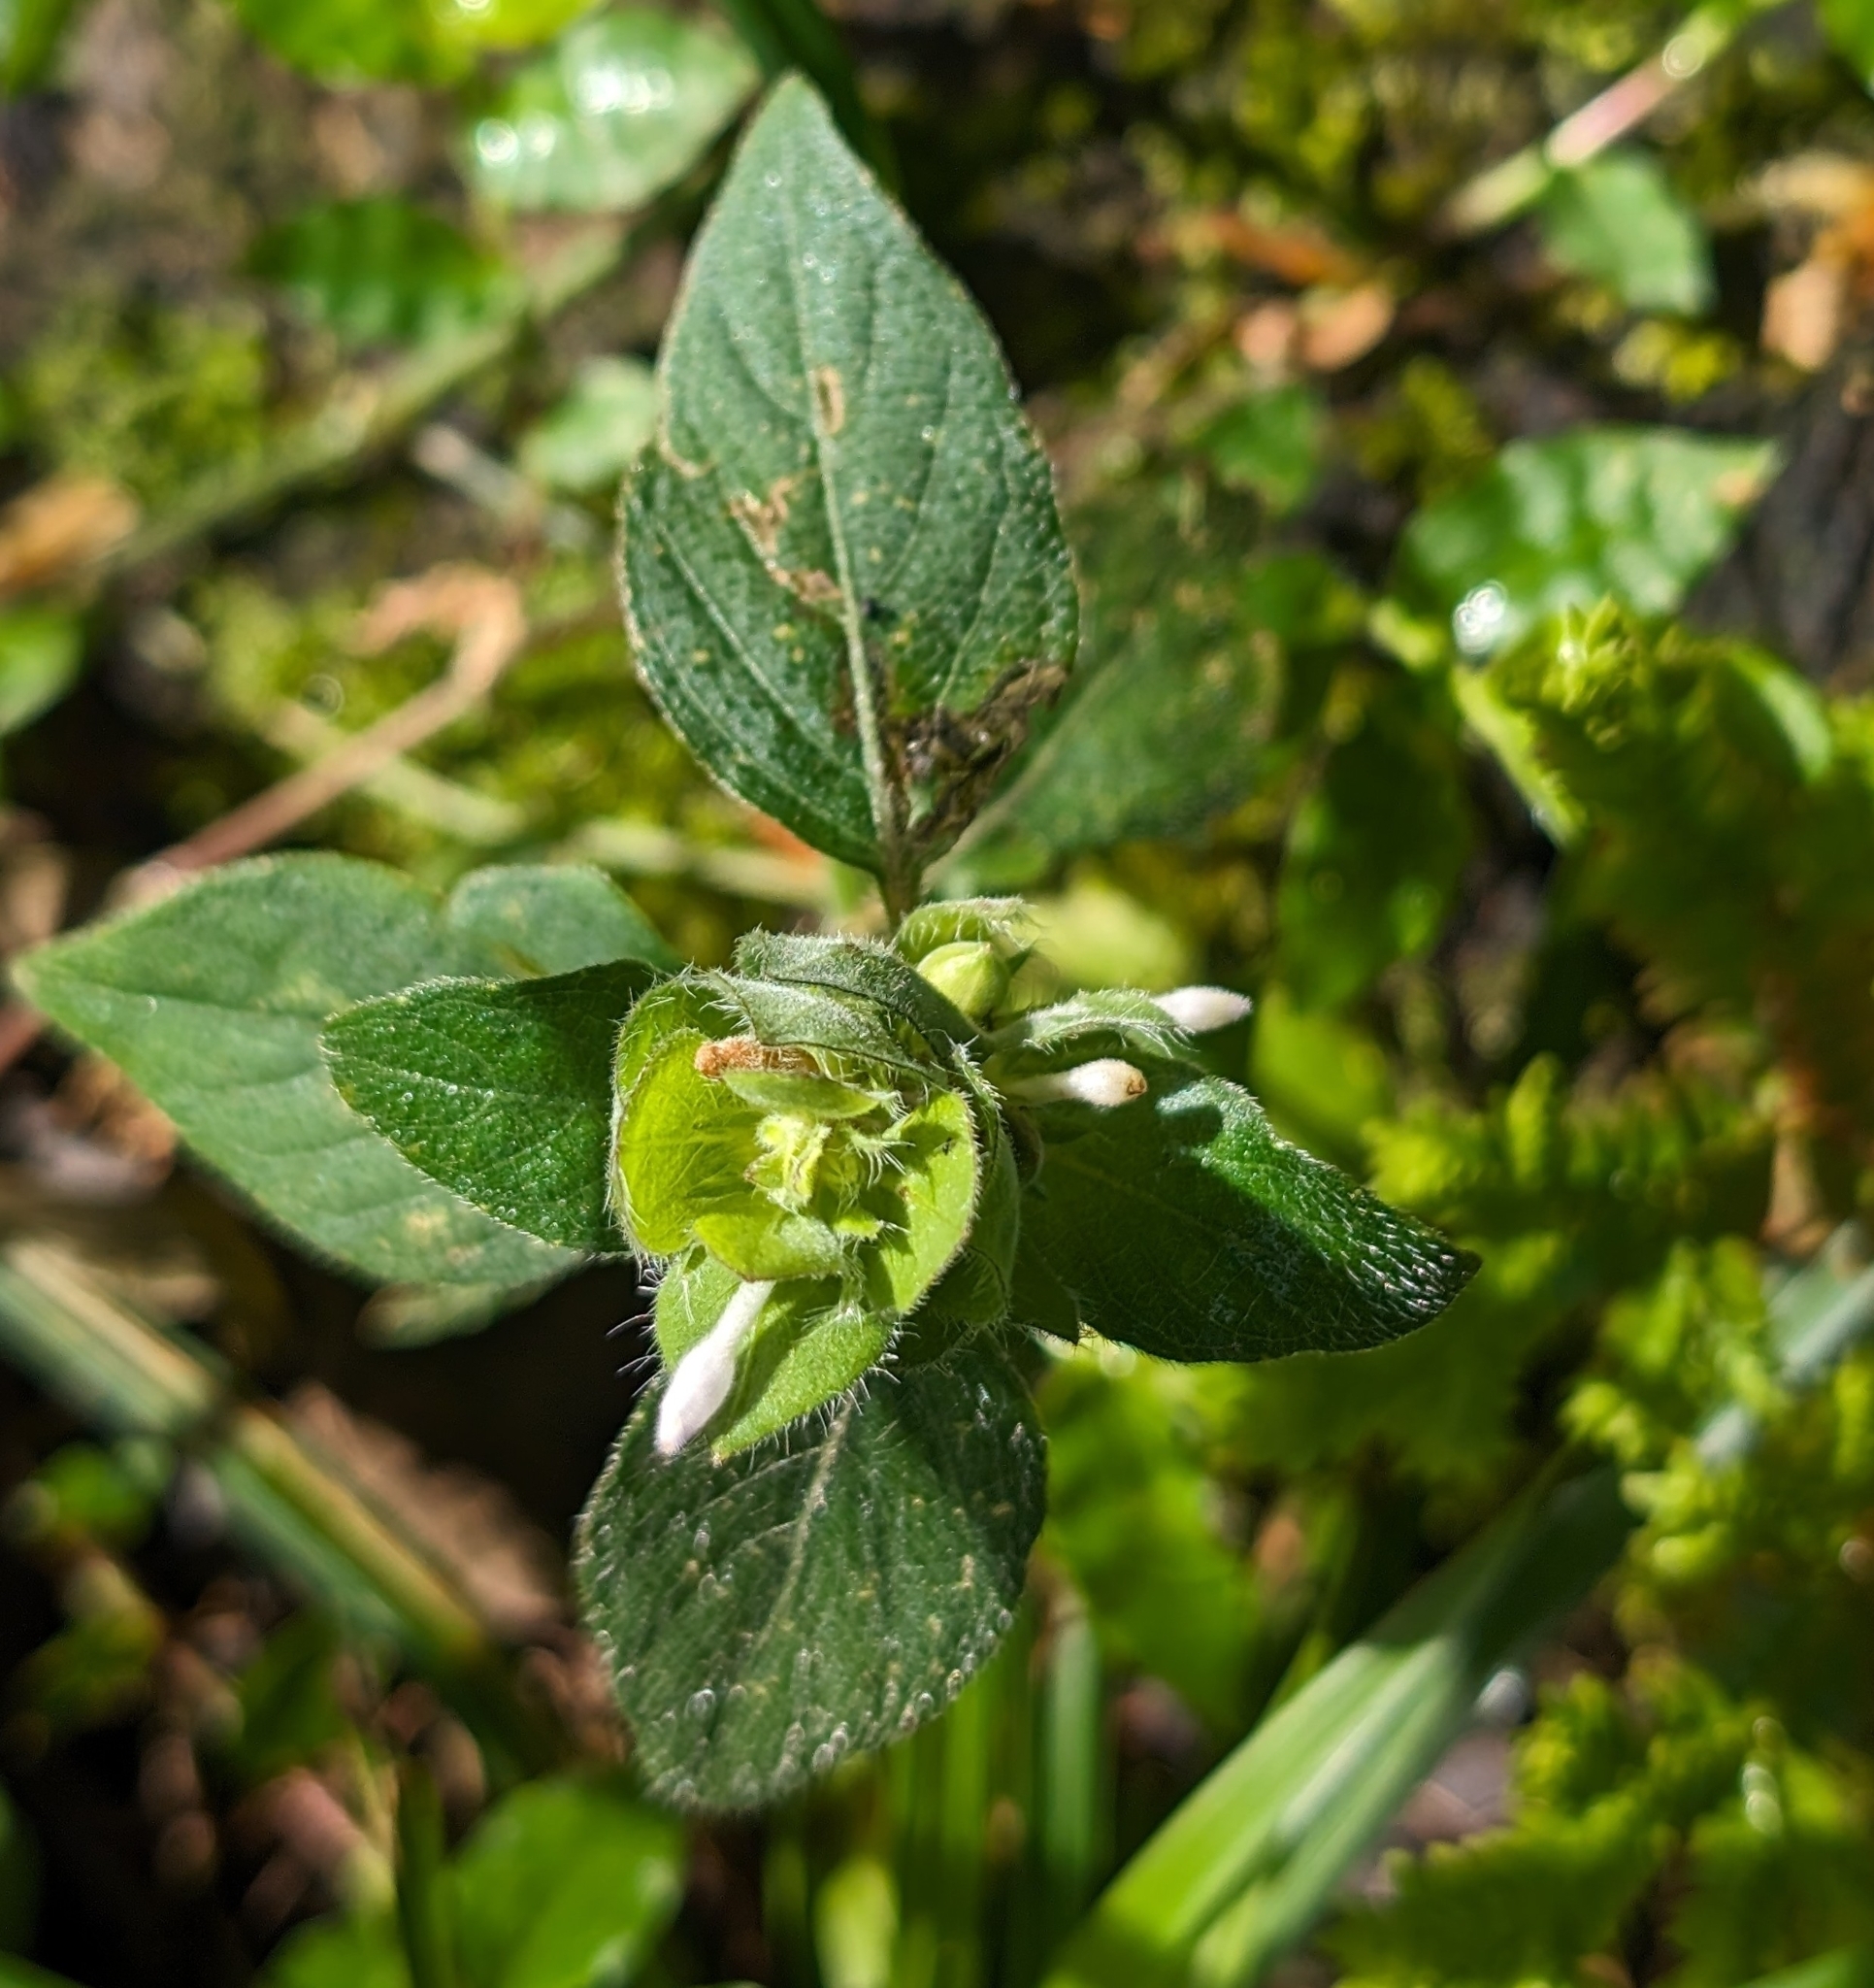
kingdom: Plantae
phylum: Tracheophyta
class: Magnoliopsida
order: Lamiales
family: Acanthaceae
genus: Ruellia
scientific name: Ruellia blechum
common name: Browne's blechum
